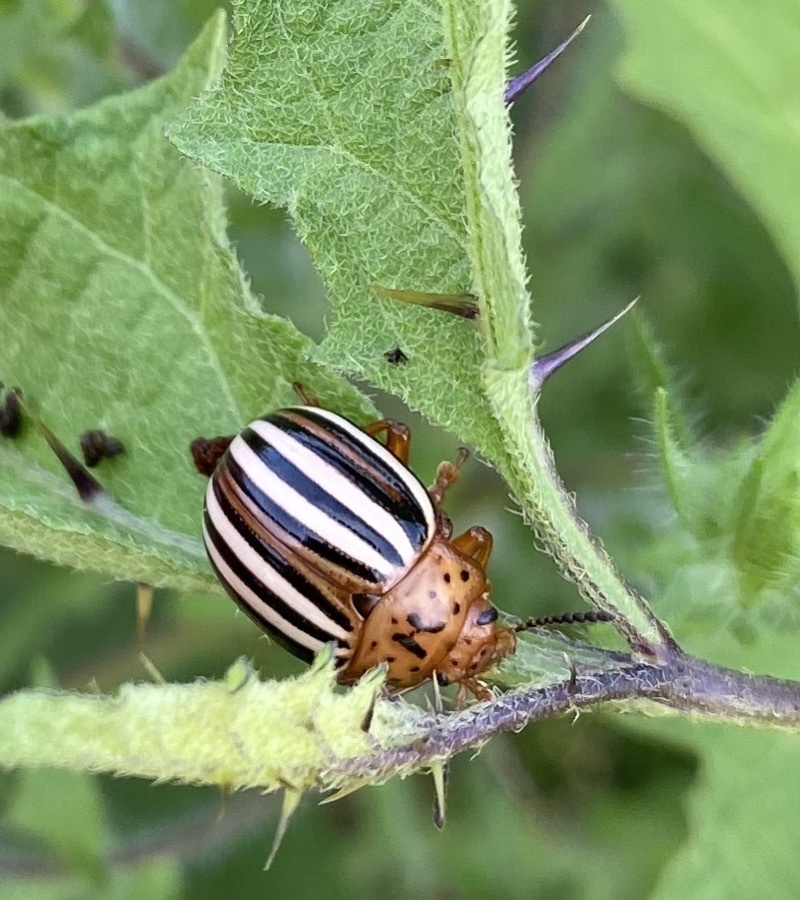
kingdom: Animalia
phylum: Arthropoda
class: Insecta
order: Coleoptera
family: Chrysomelidae
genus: Leptinotarsa
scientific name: Leptinotarsa juncta
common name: False potato beetle
